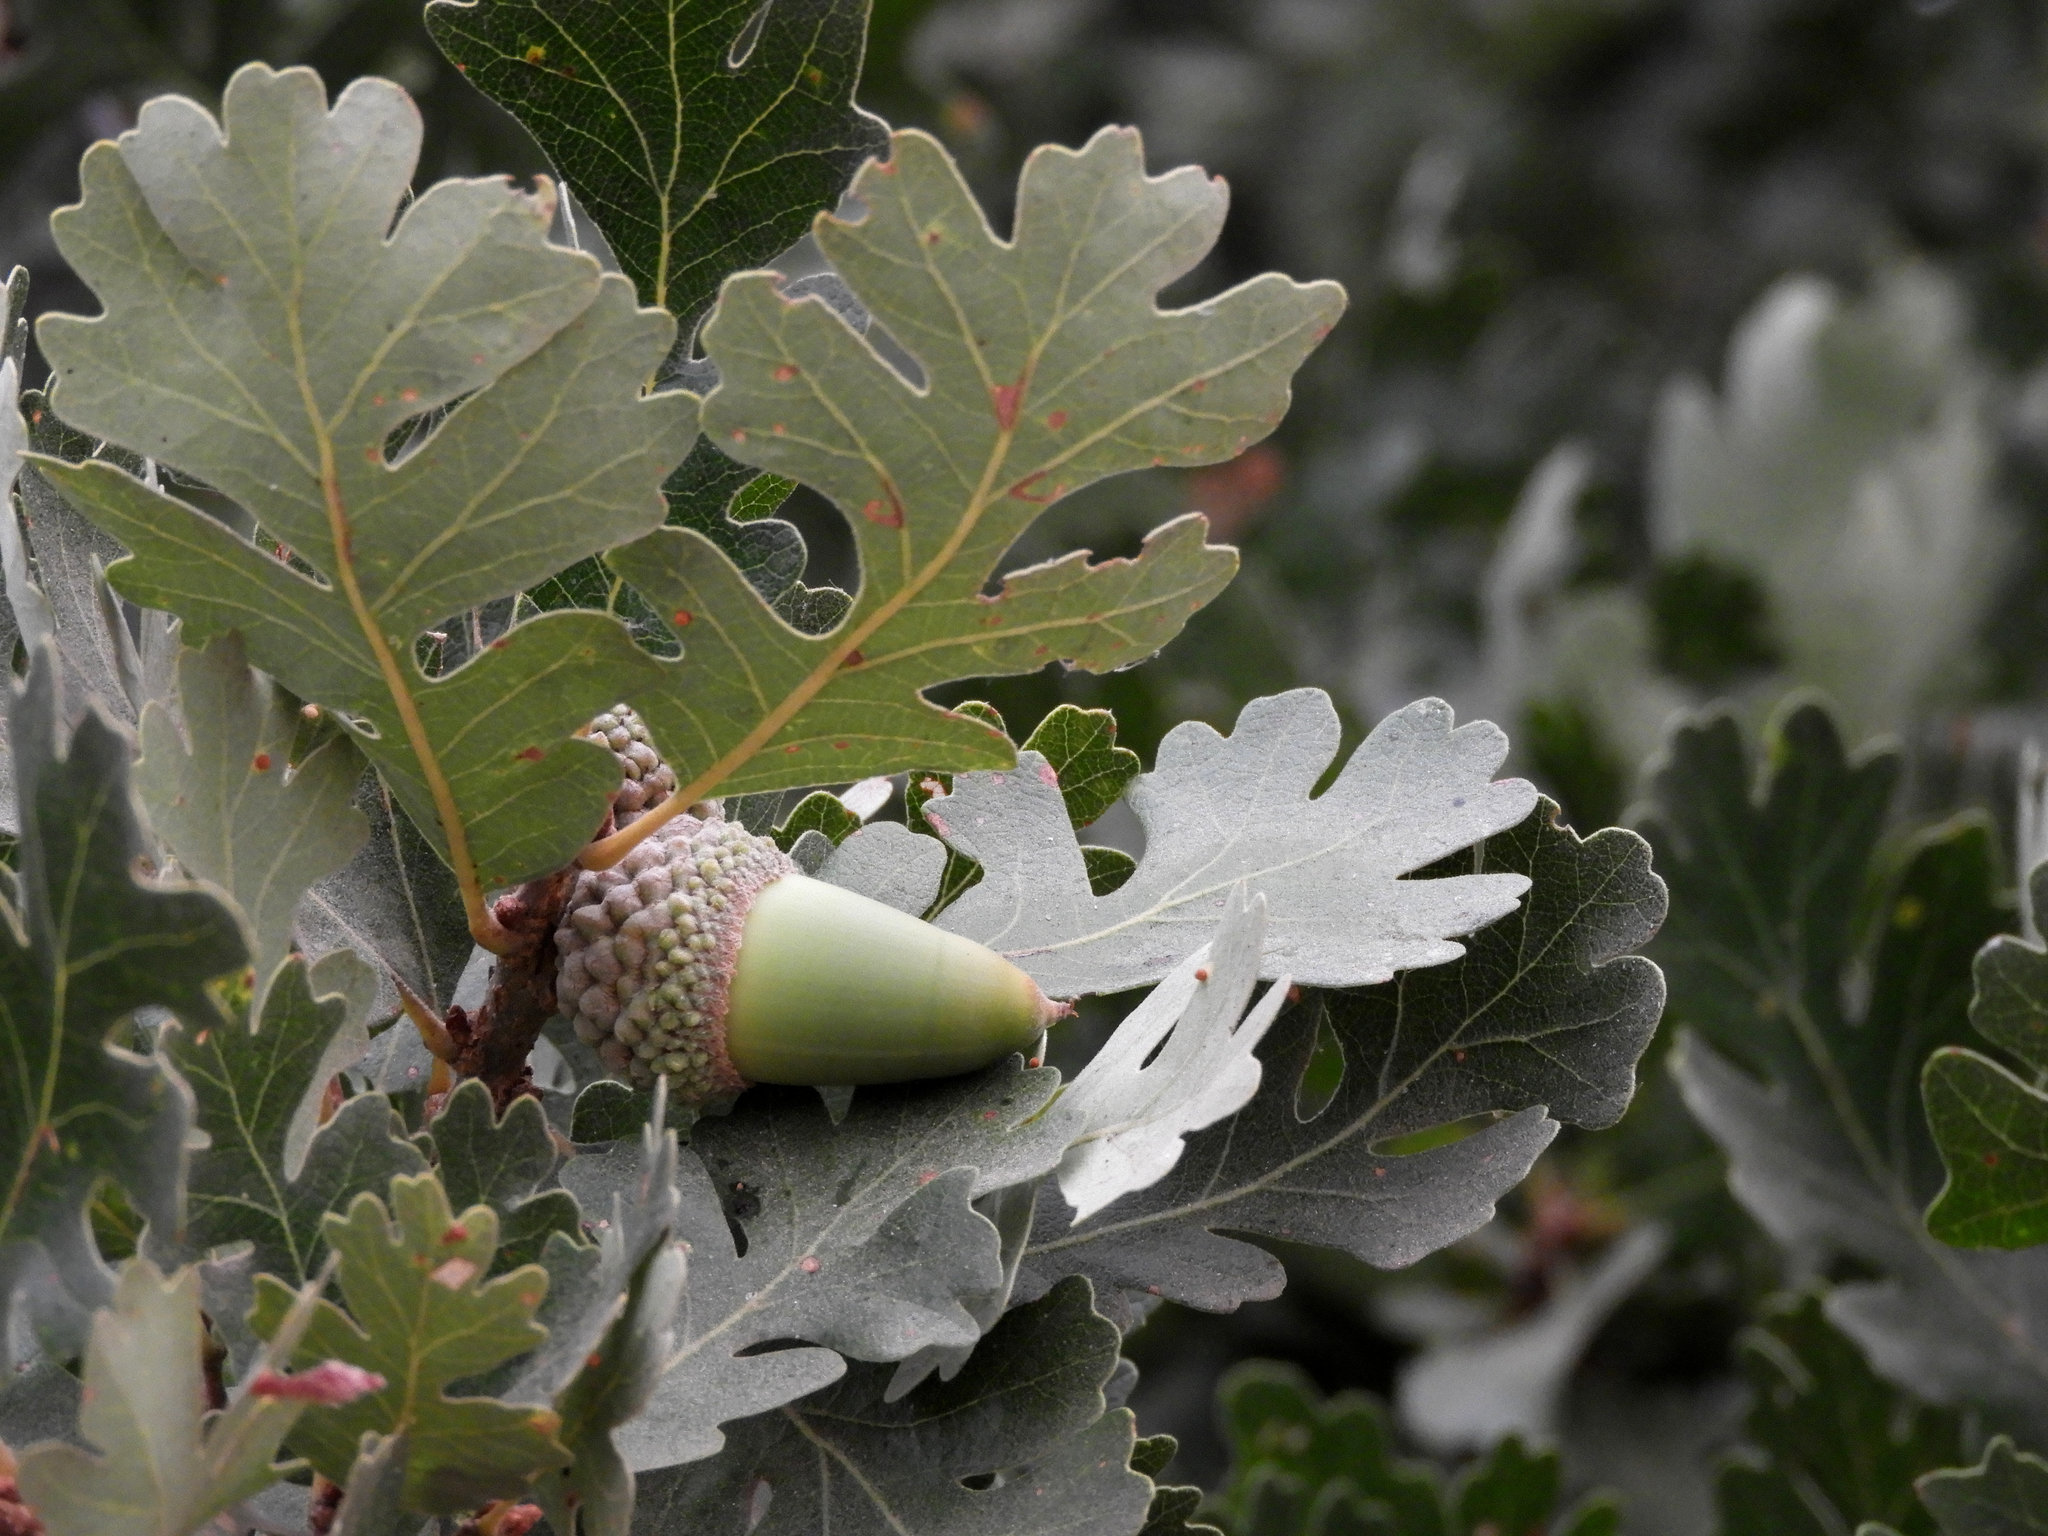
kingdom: Plantae
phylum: Tracheophyta
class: Magnoliopsida
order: Fagales
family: Fagaceae
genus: Quercus
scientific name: Quercus lobata
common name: Valley oak
